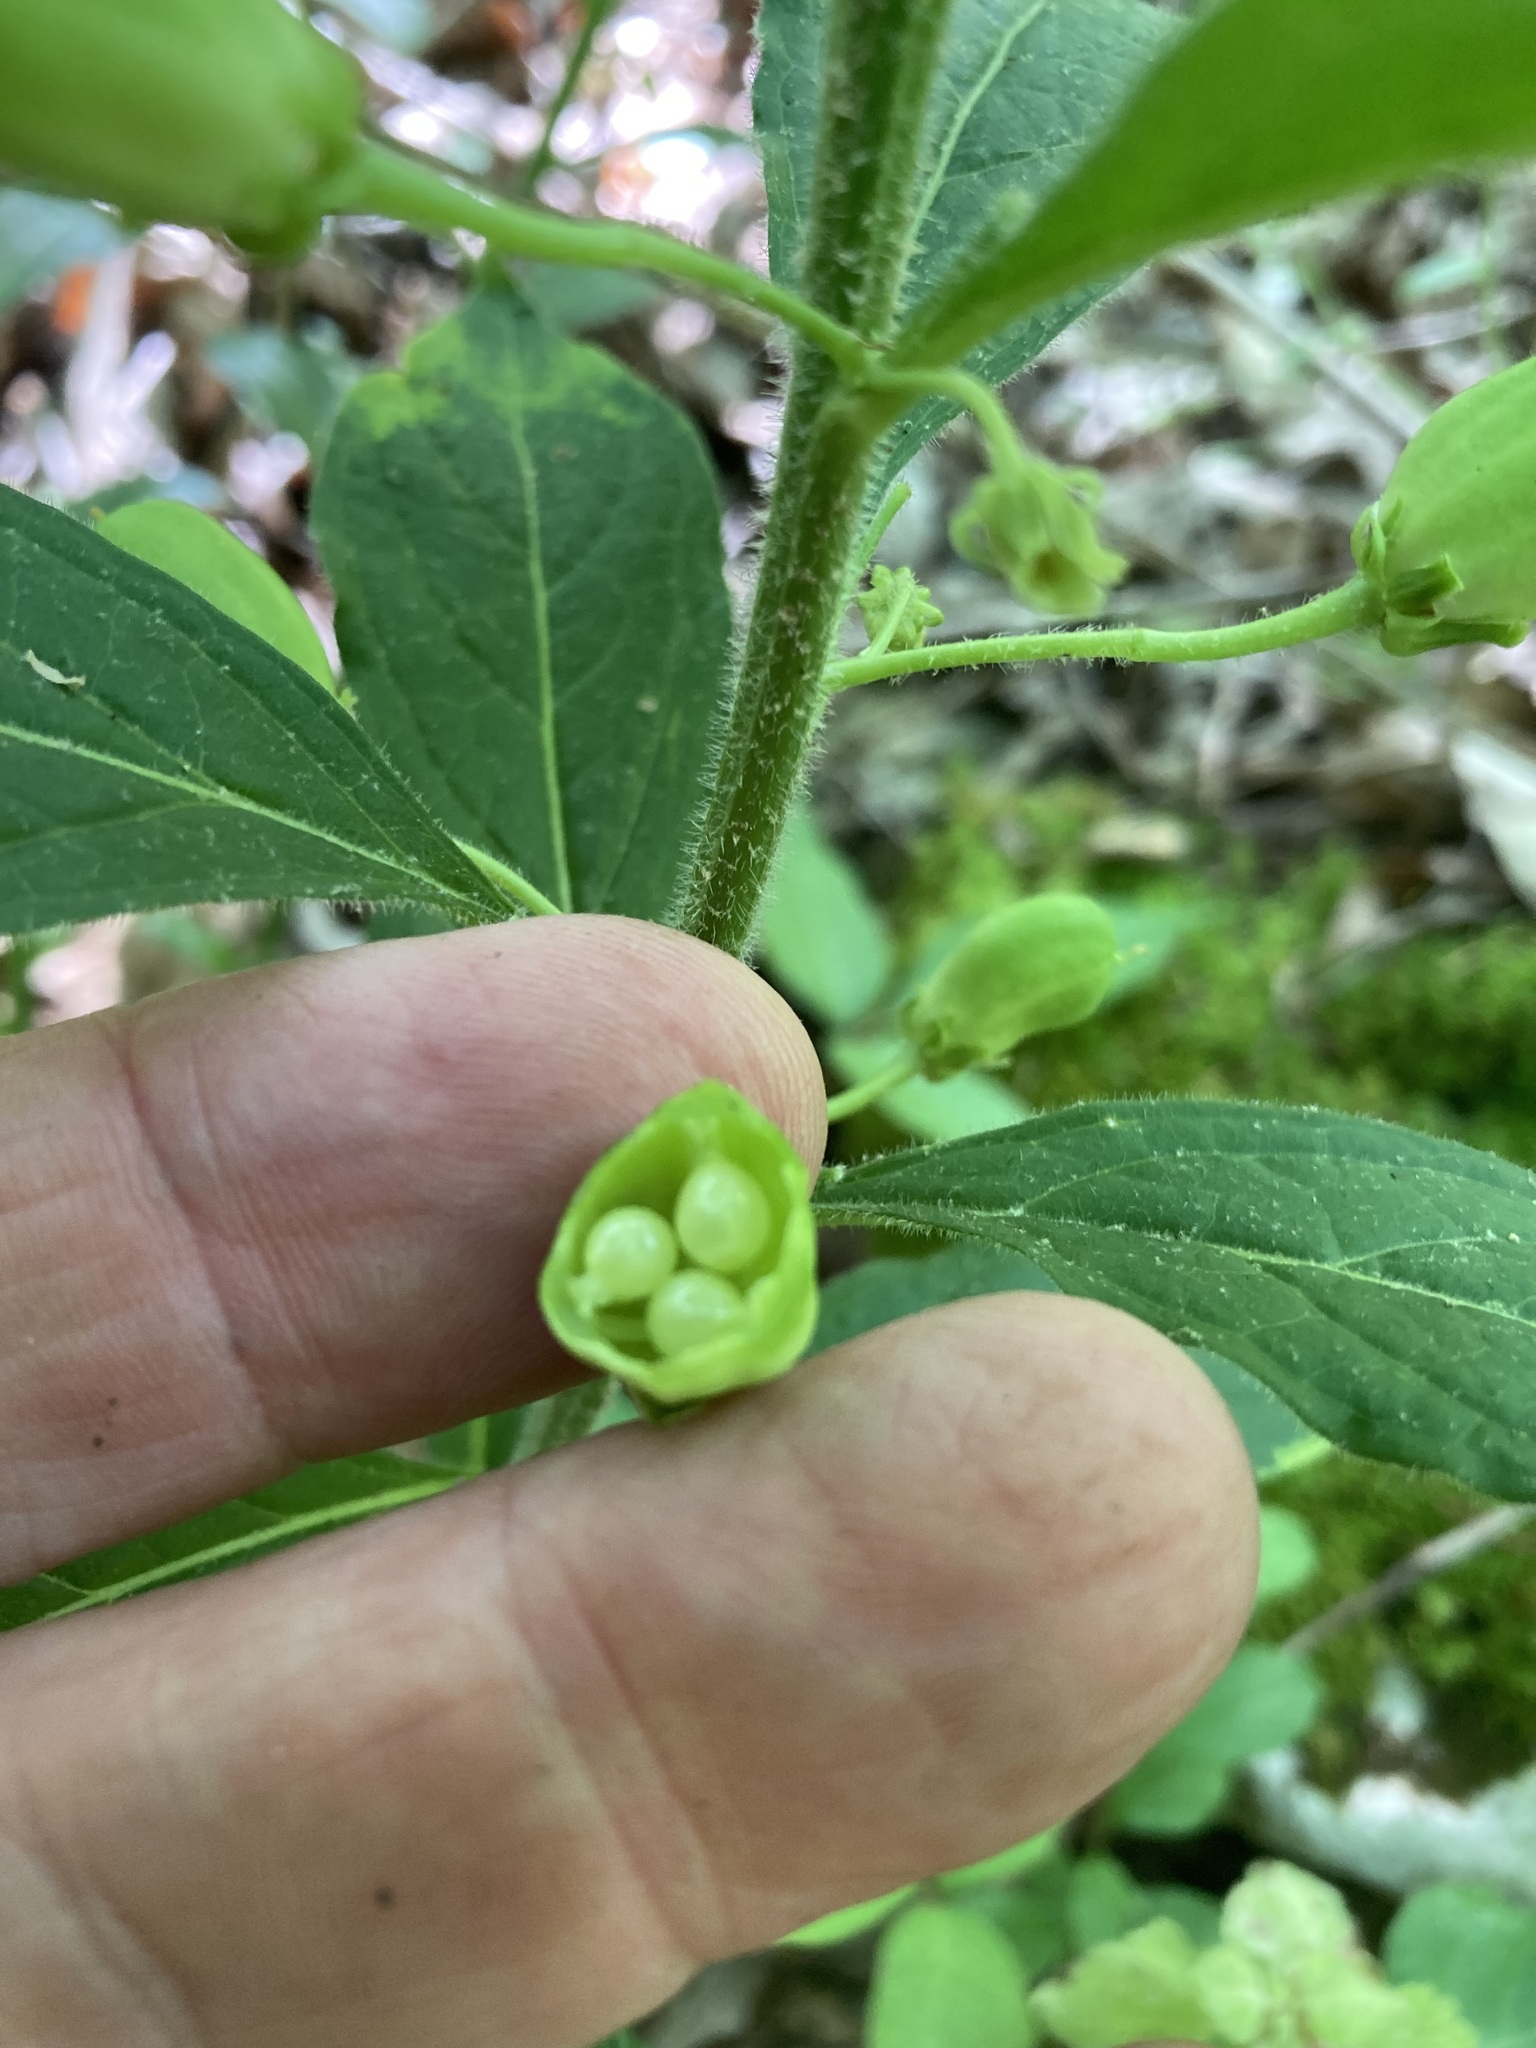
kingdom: Plantae
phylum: Tracheophyta
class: Magnoliopsida
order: Malpighiales
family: Violaceae
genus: Cubelium
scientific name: Cubelium concolor
